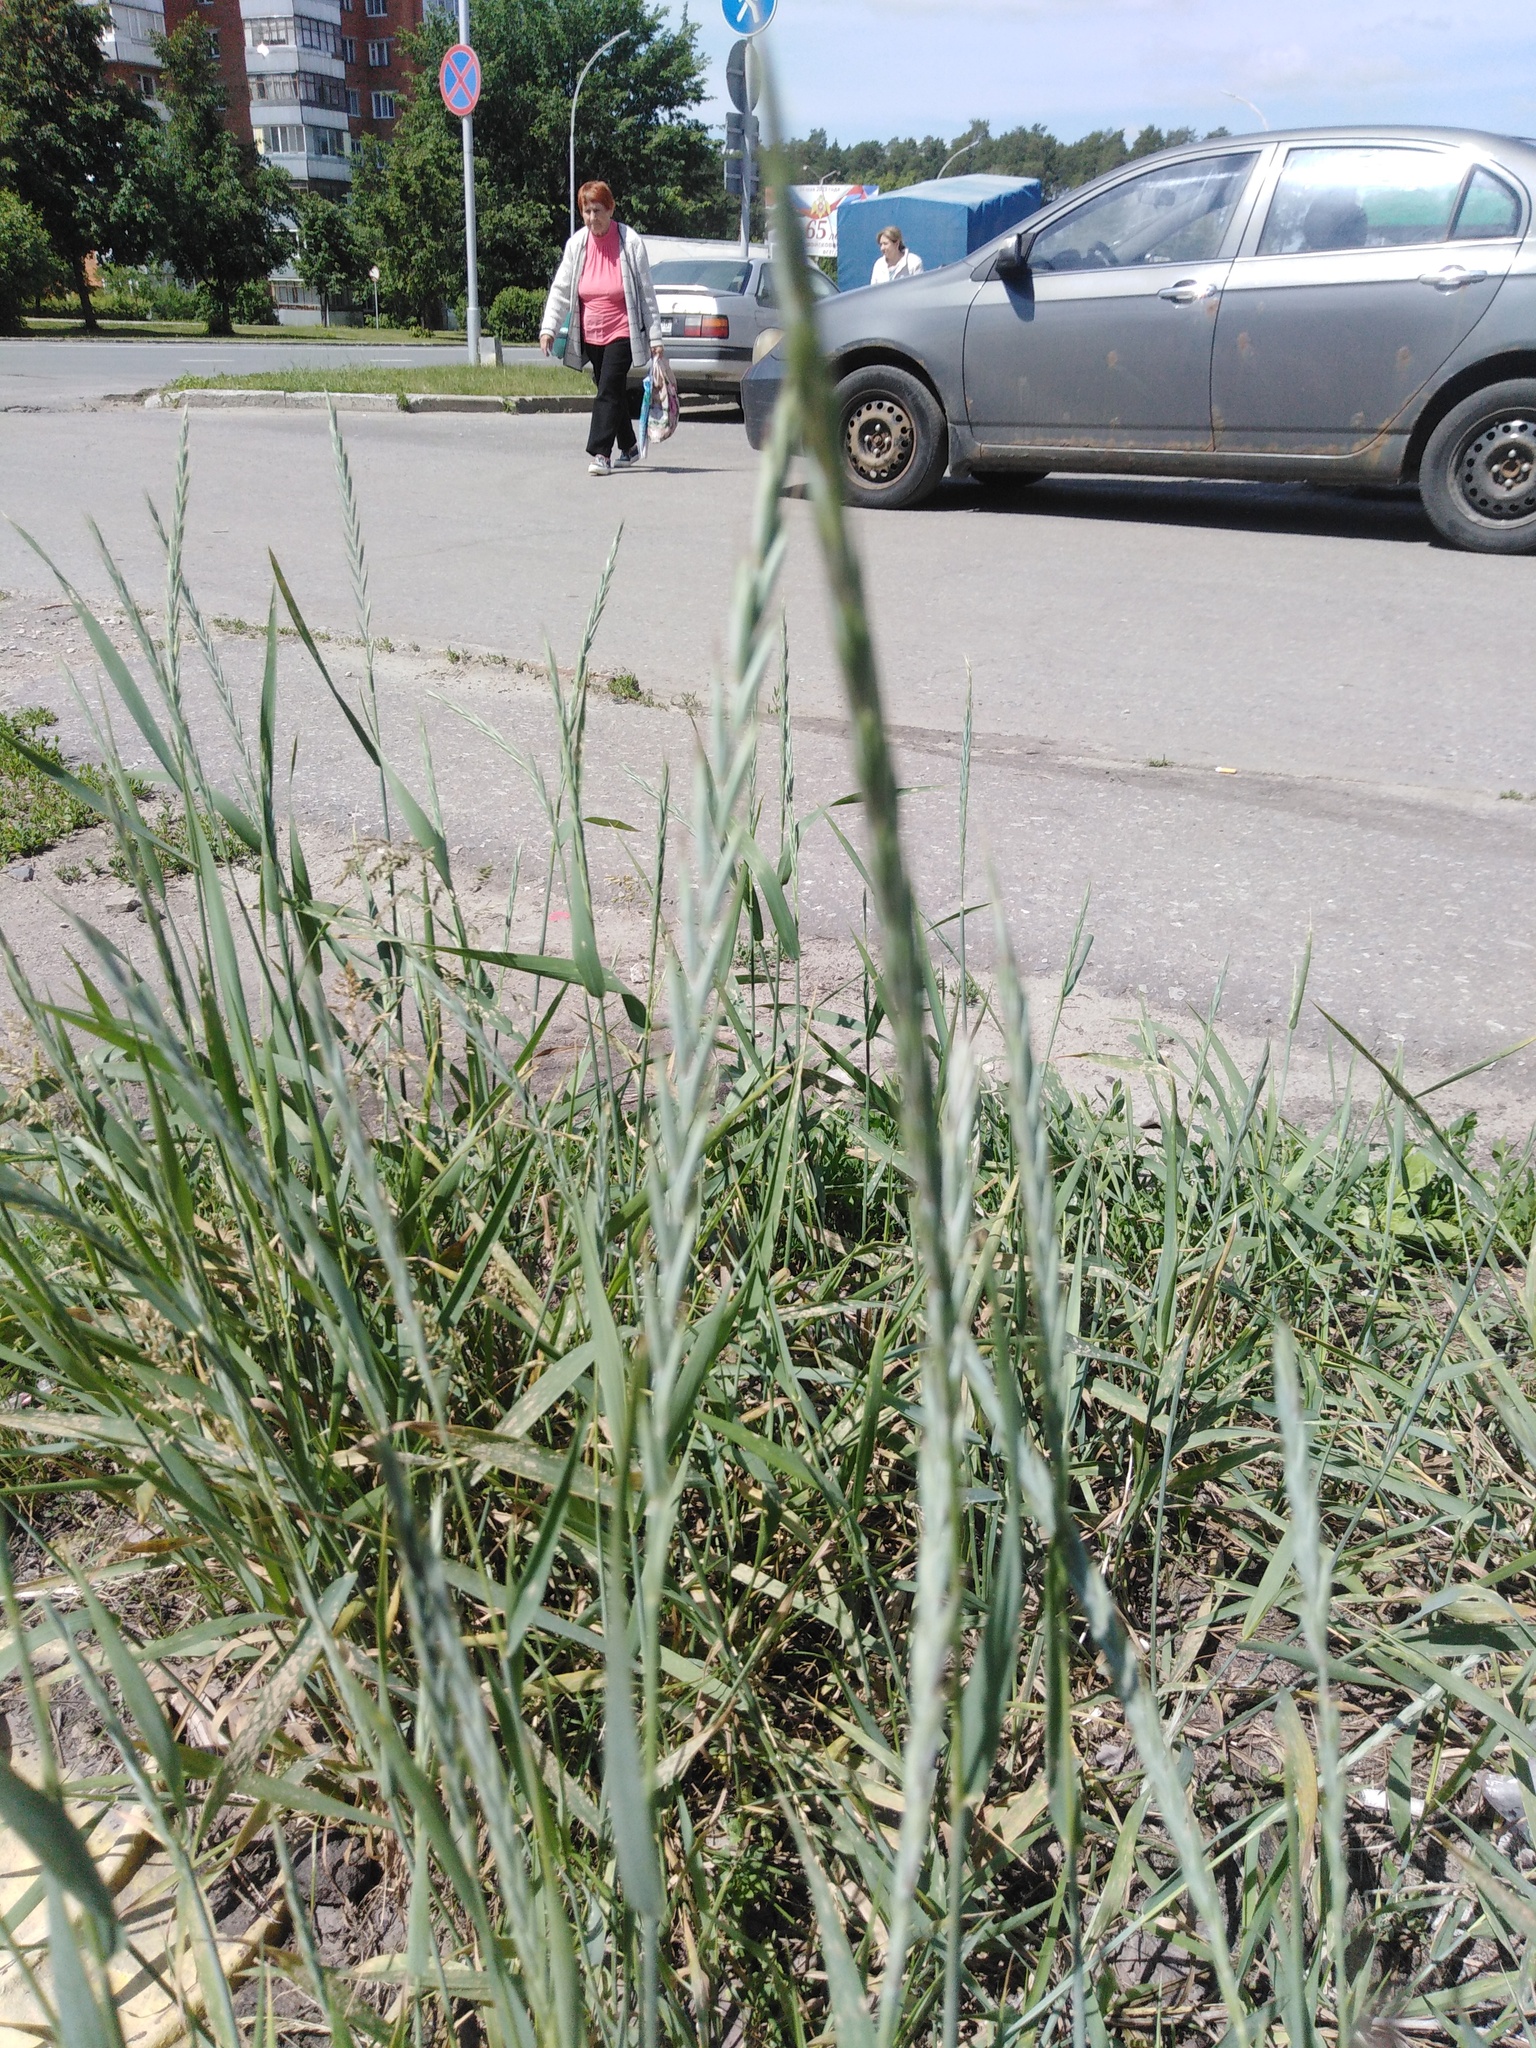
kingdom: Plantae
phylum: Tracheophyta
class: Liliopsida
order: Poales
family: Poaceae
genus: Elymus
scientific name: Elymus repens
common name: Quackgrass
